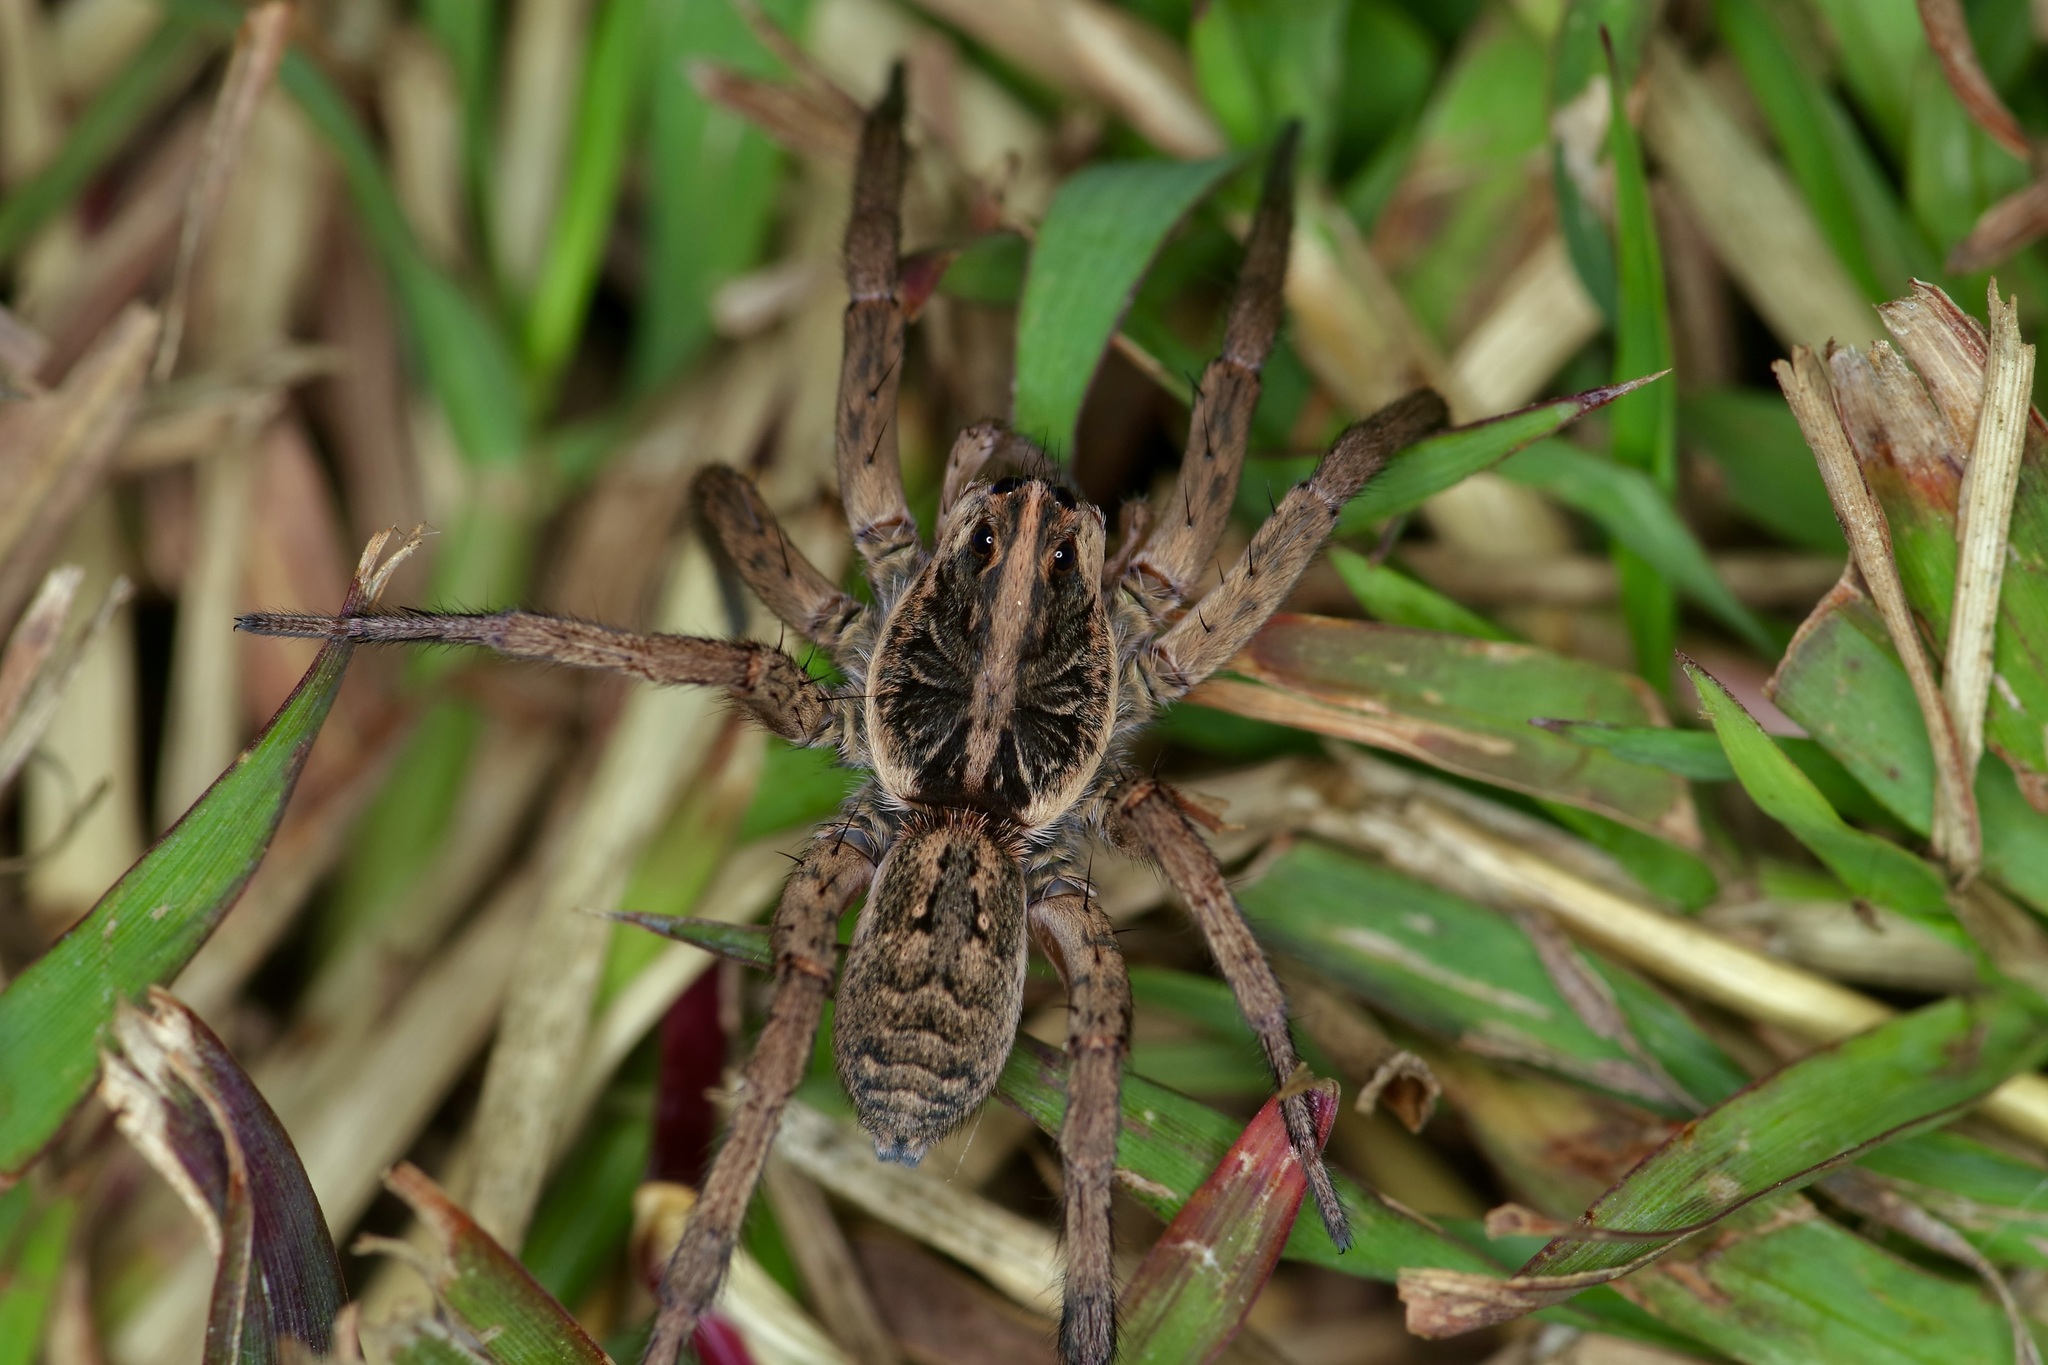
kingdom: Animalia
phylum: Arthropoda
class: Arachnida
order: Araneae
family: Lycosidae
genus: Hogna
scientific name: Hogna antelucana
